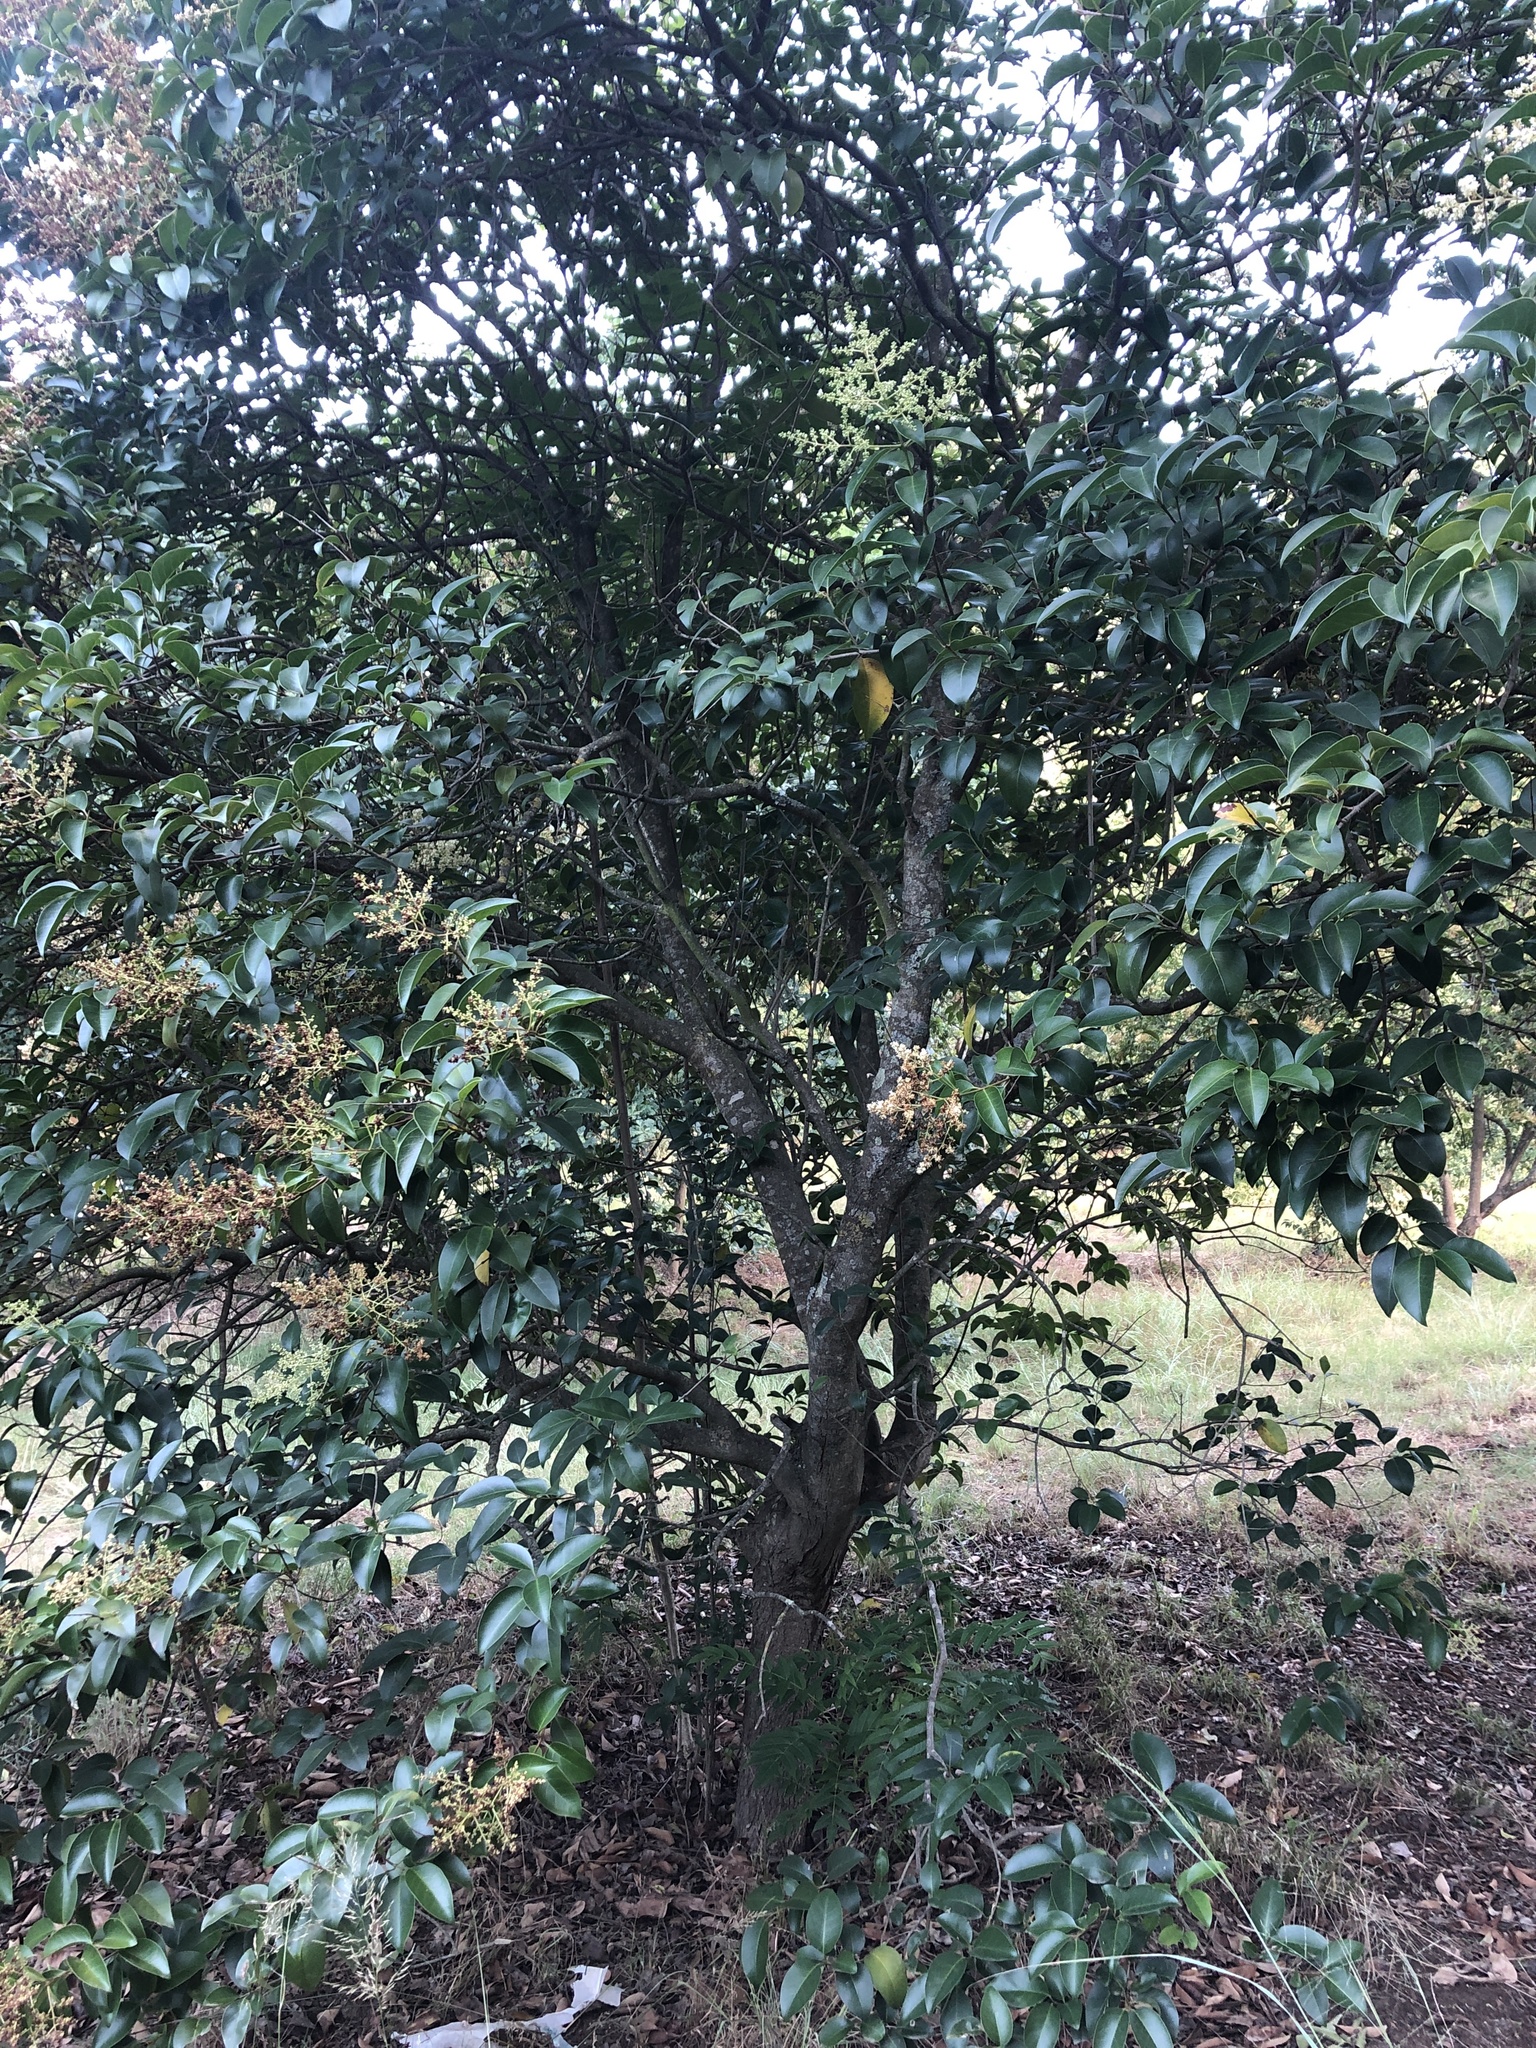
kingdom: Plantae
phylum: Tracheophyta
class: Magnoliopsida
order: Lamiales
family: Oleaceae
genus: Ligustrum
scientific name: Ligustrum lucidum
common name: Glossy privet
